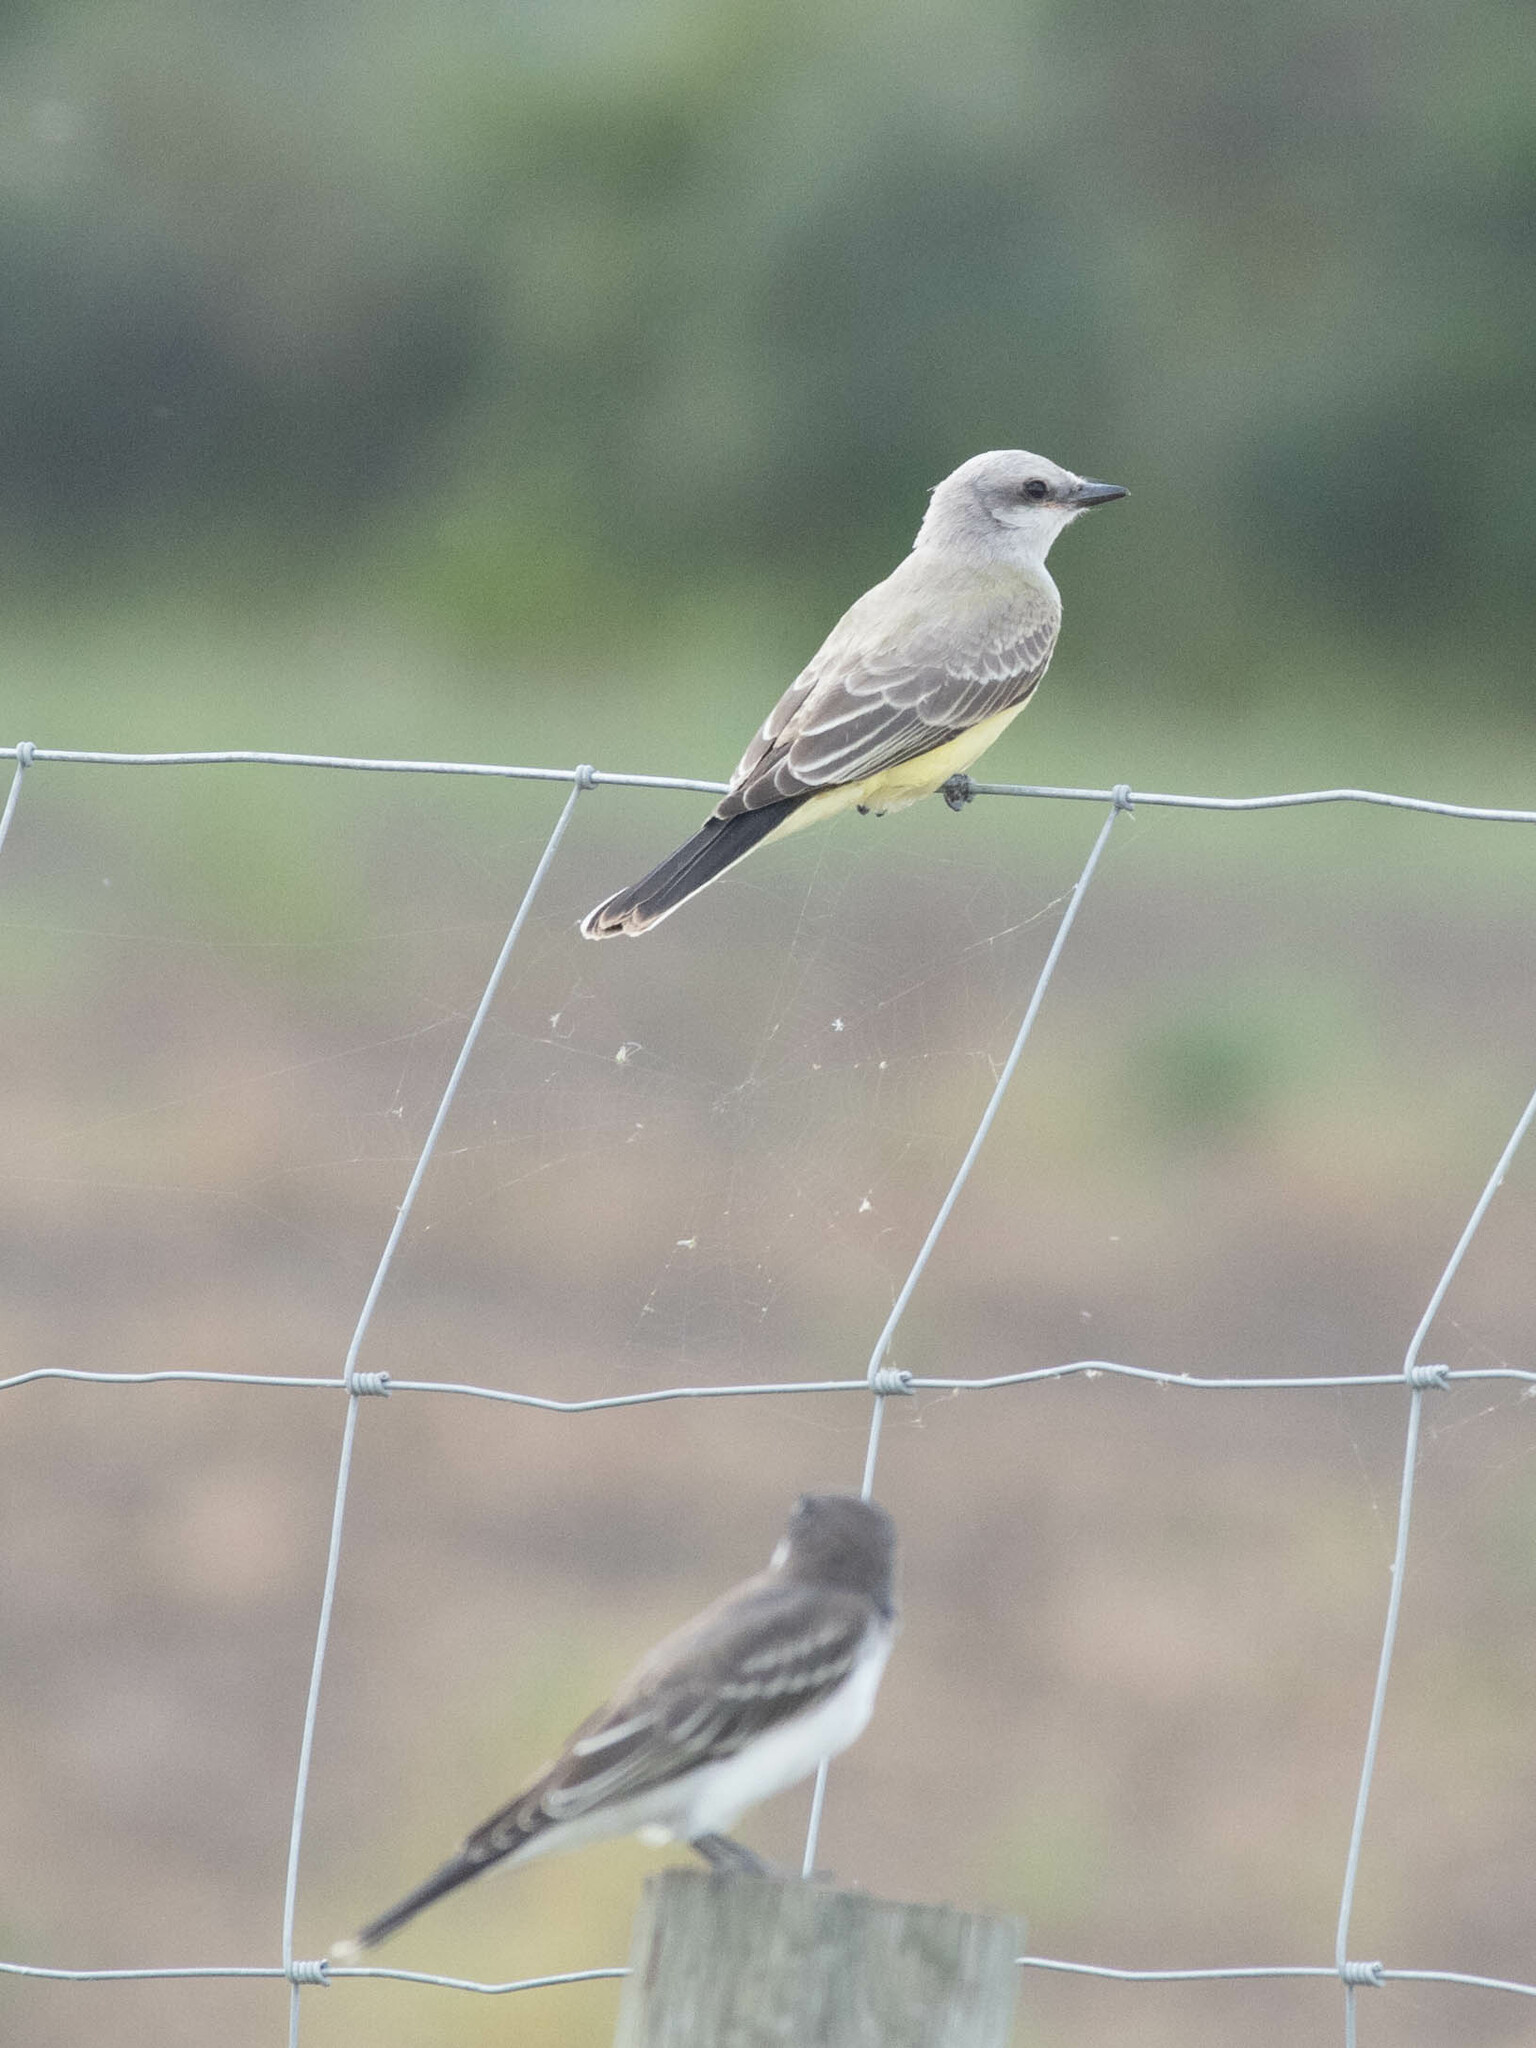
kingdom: Animalia
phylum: Chordata
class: Aves
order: Passeriformes
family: Tyrannidae
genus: Tyrannus
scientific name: Tyrannus verticalis
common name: Western kingbird
